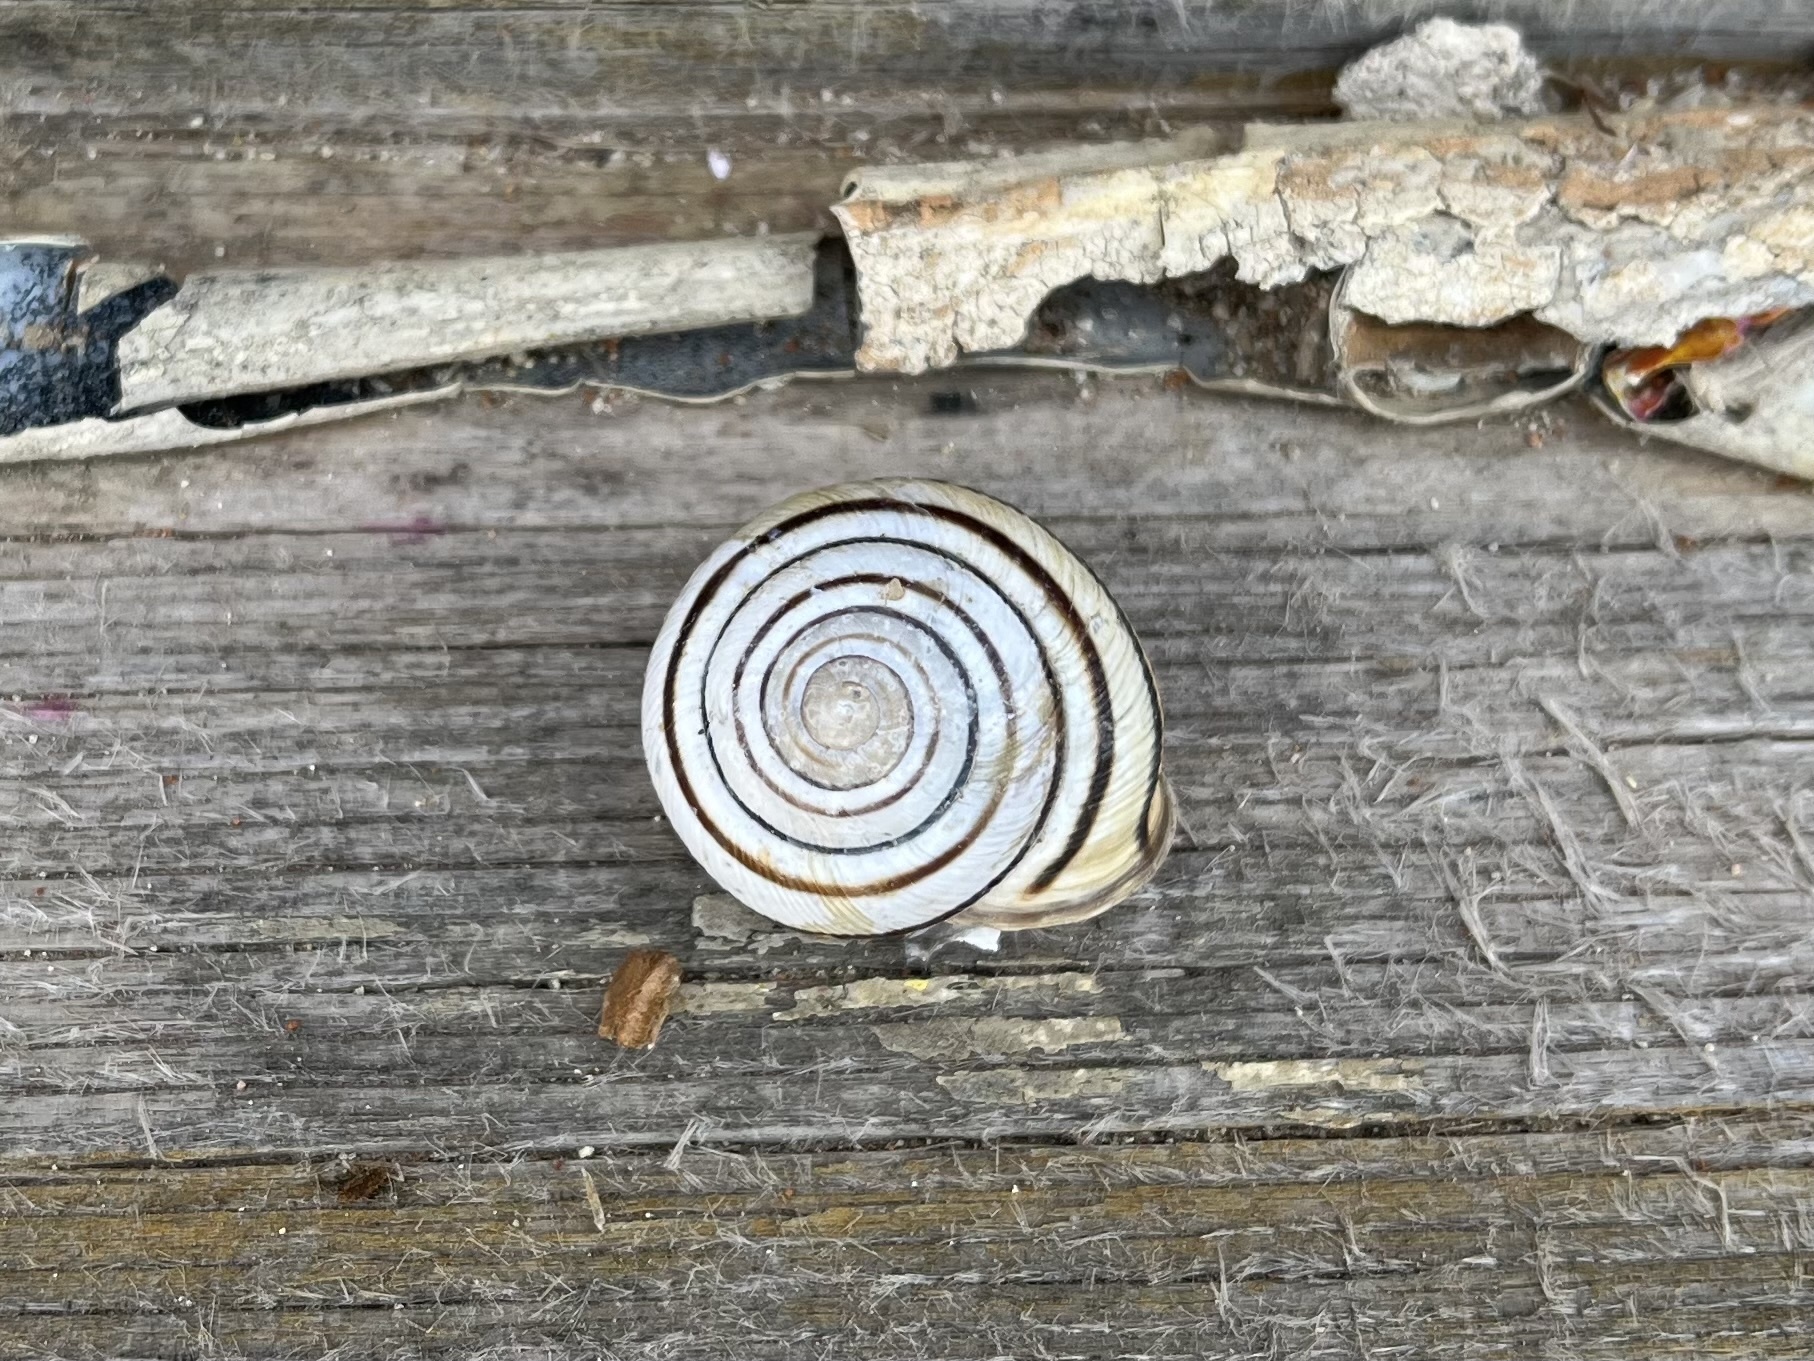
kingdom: Animalia
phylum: Mollusca
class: Gastropoda
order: Stylommatophora
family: Helicidae
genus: Caucasotachea
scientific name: Caucasotachea vindobonensis
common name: European helicid land snail
